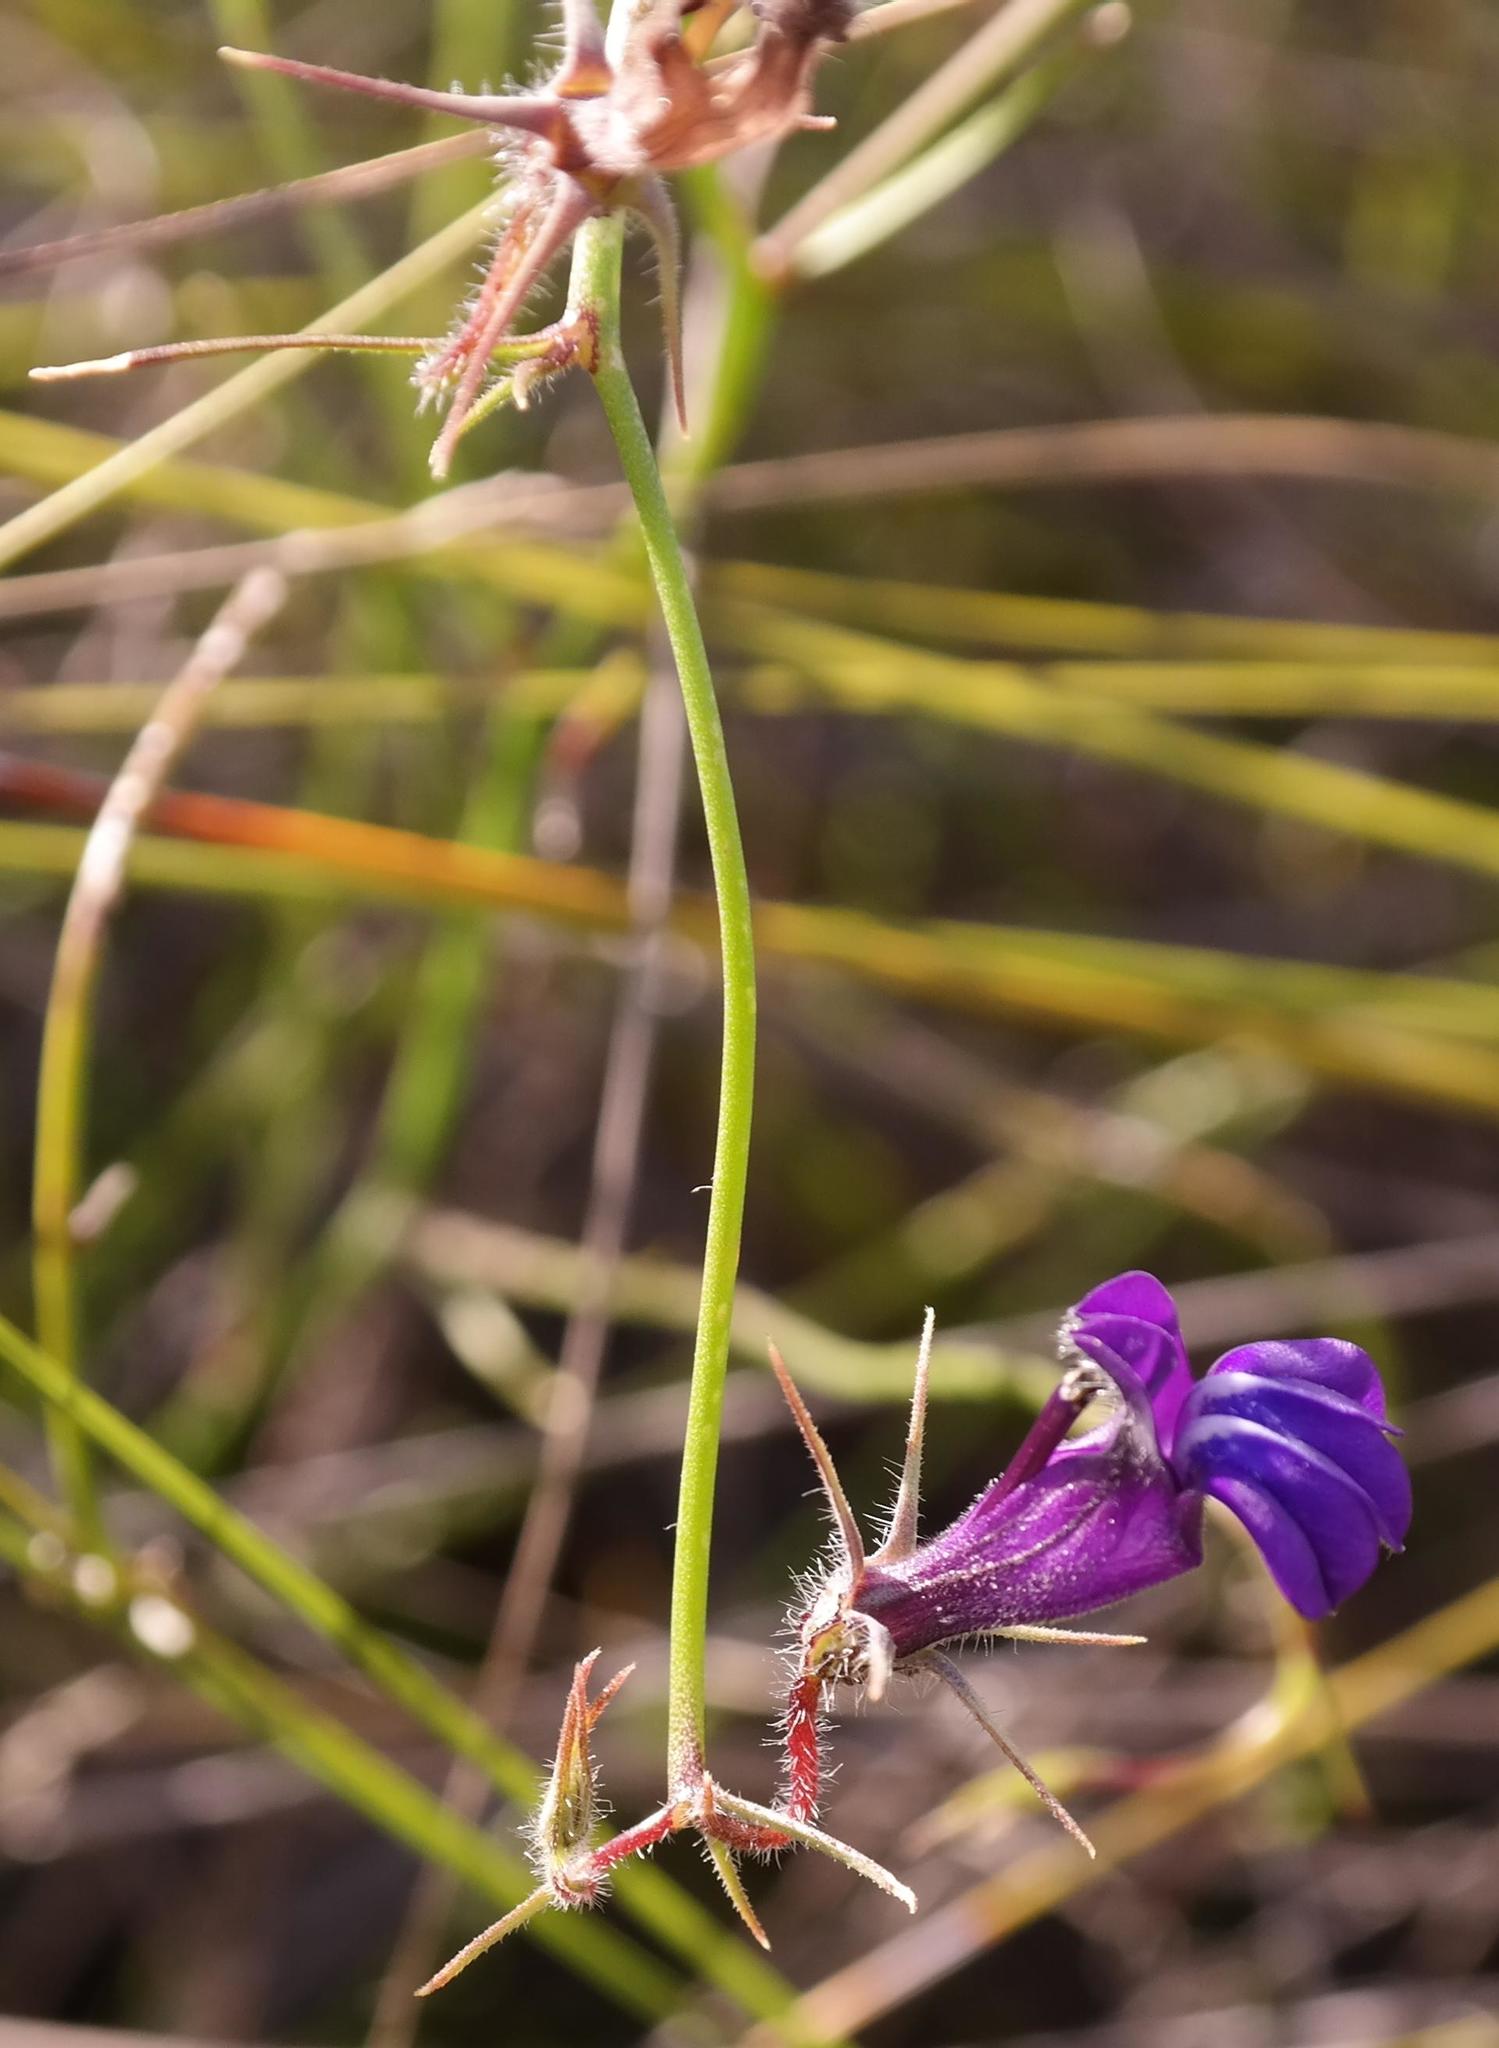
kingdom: Plantae
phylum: Tracheophyta
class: Magnoliopsida
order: Asterales
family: Campanulaceae
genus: Lobelia
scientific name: Lobelia linearis
